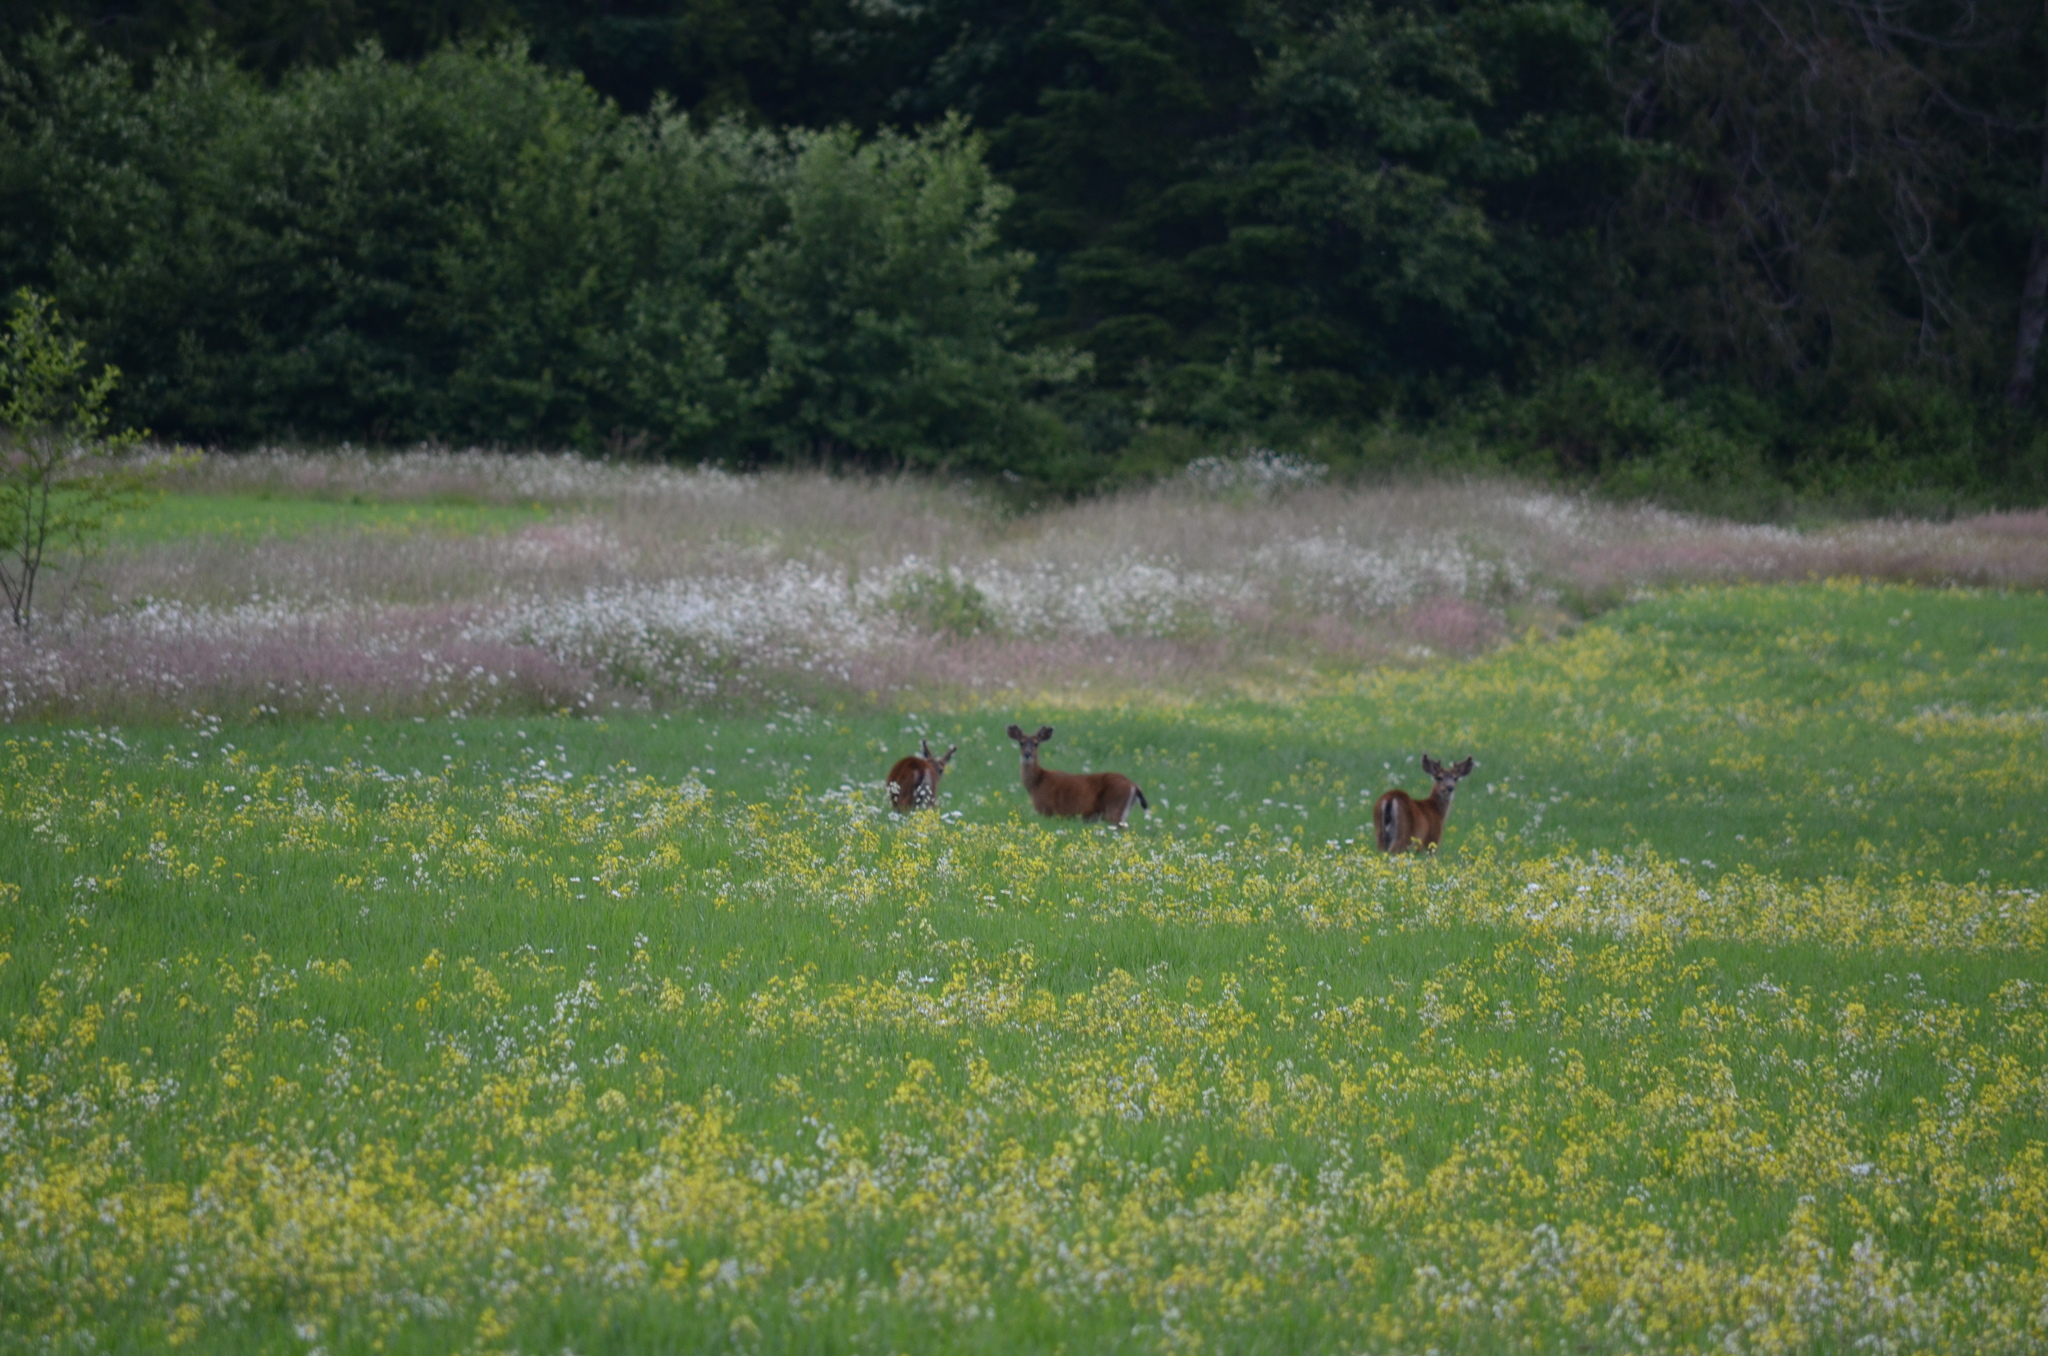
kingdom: Animalia
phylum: Chordata
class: Mammalia
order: Artiodactyla
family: Cervidae
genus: Odocoileus
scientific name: Odocoileus hemionus
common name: Mule deer
